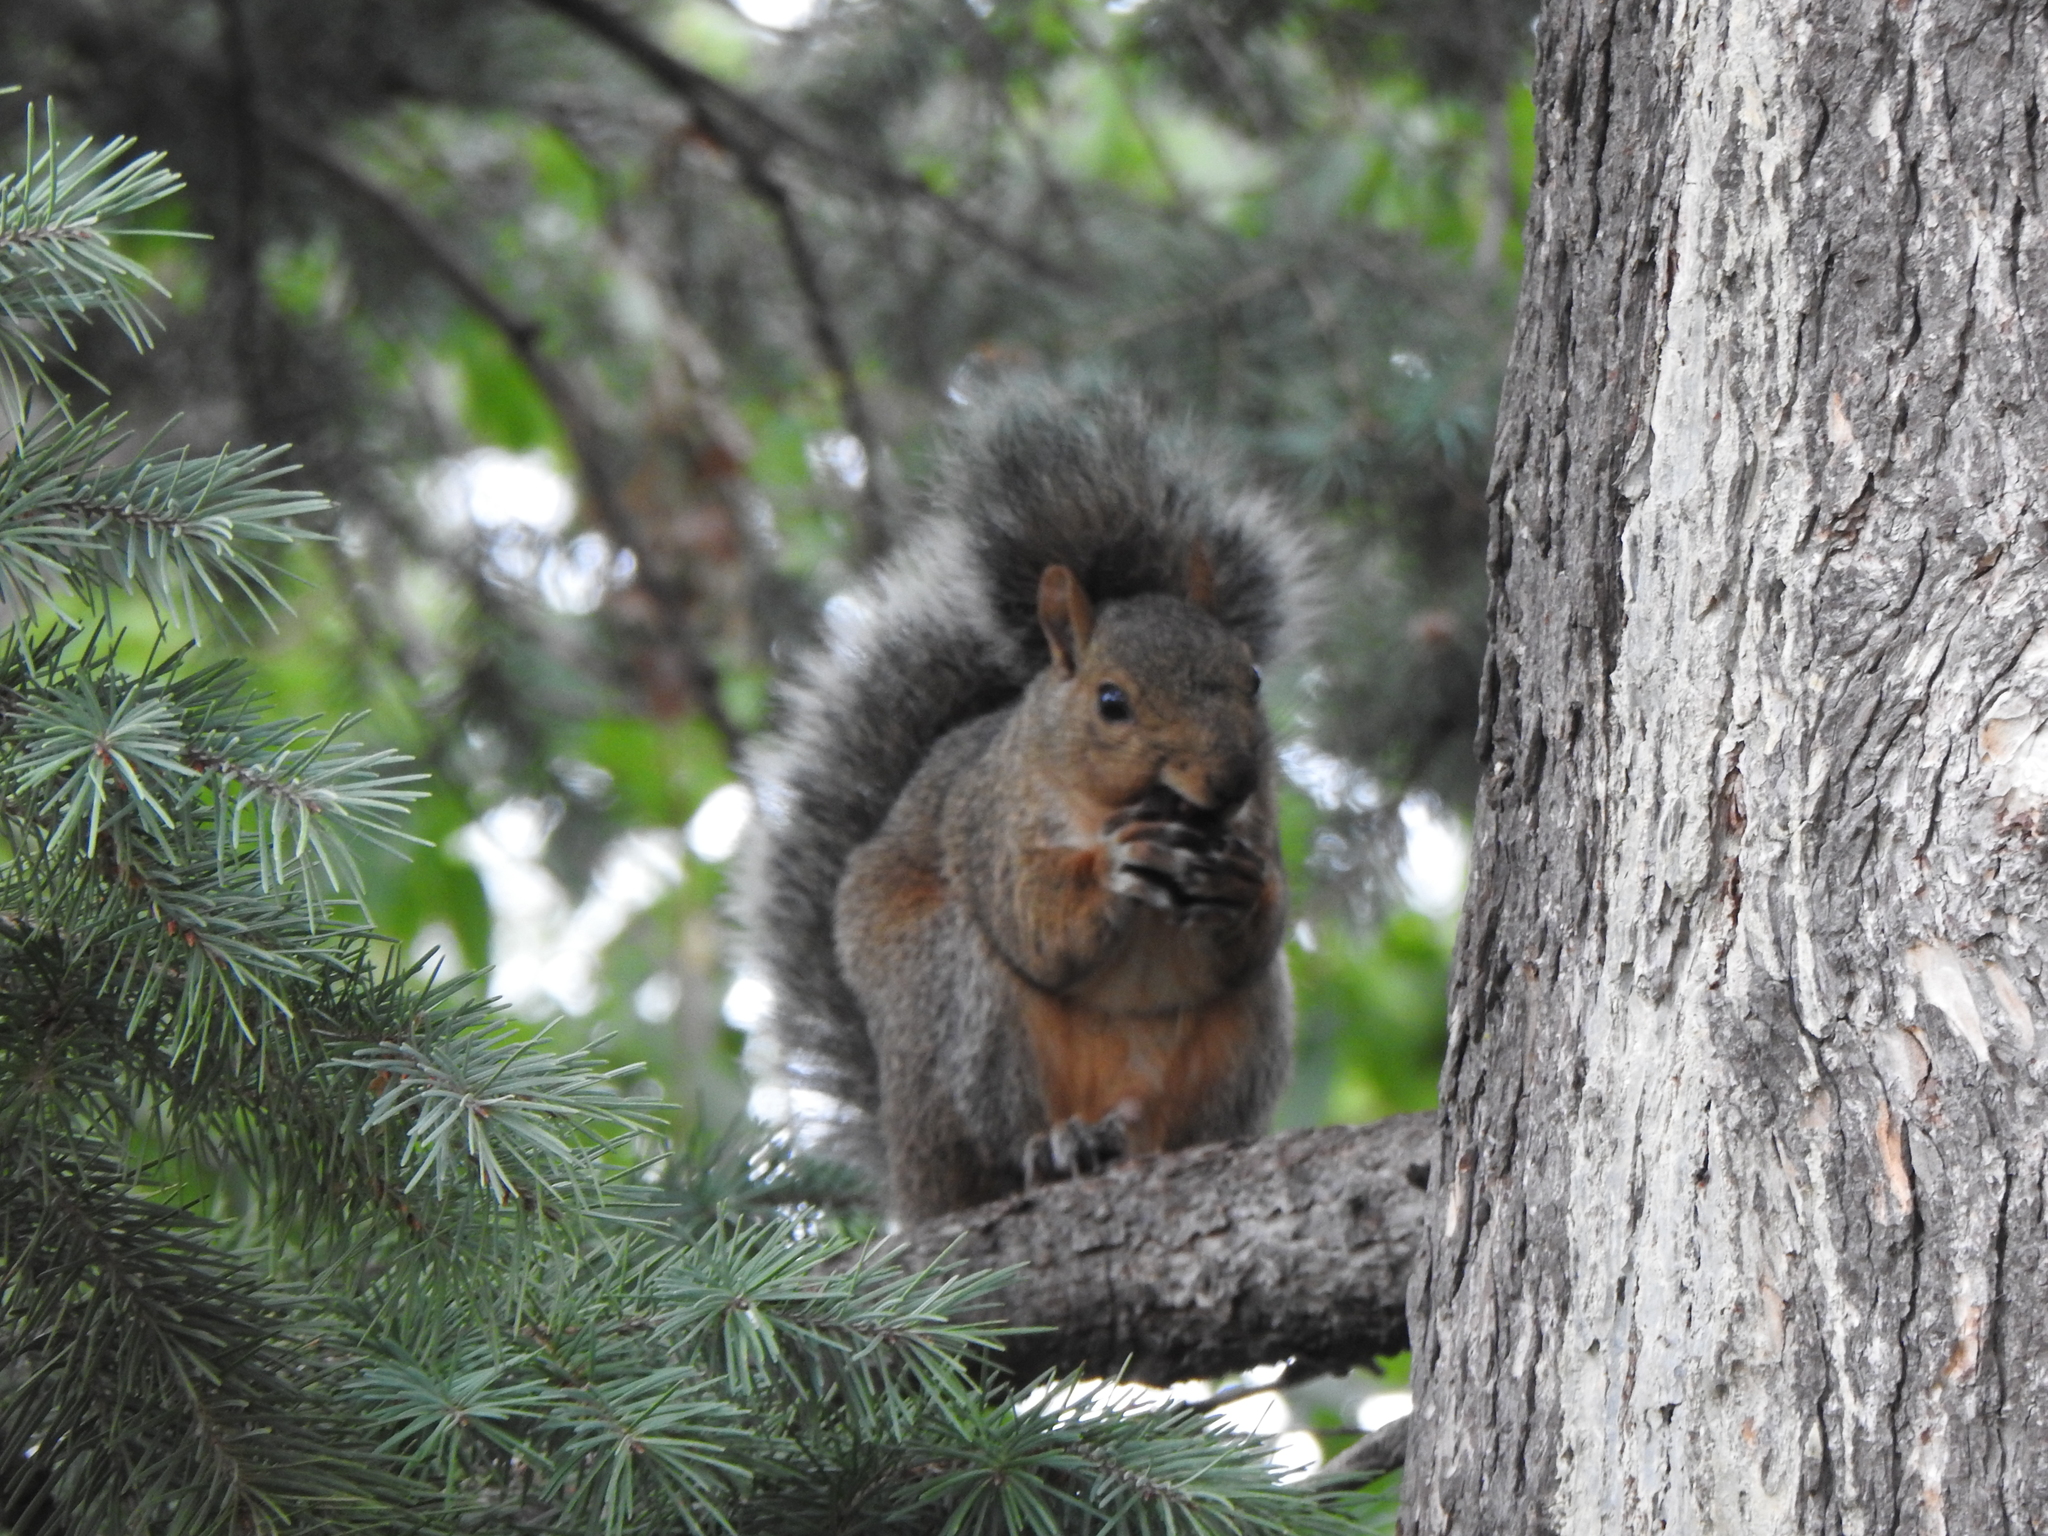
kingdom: Animalia
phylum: Chordata
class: Mammalia
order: Rodentia
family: Sciuridae
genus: Sciurus
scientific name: Sciurus carolinensis
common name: Eastern gray squirrel
